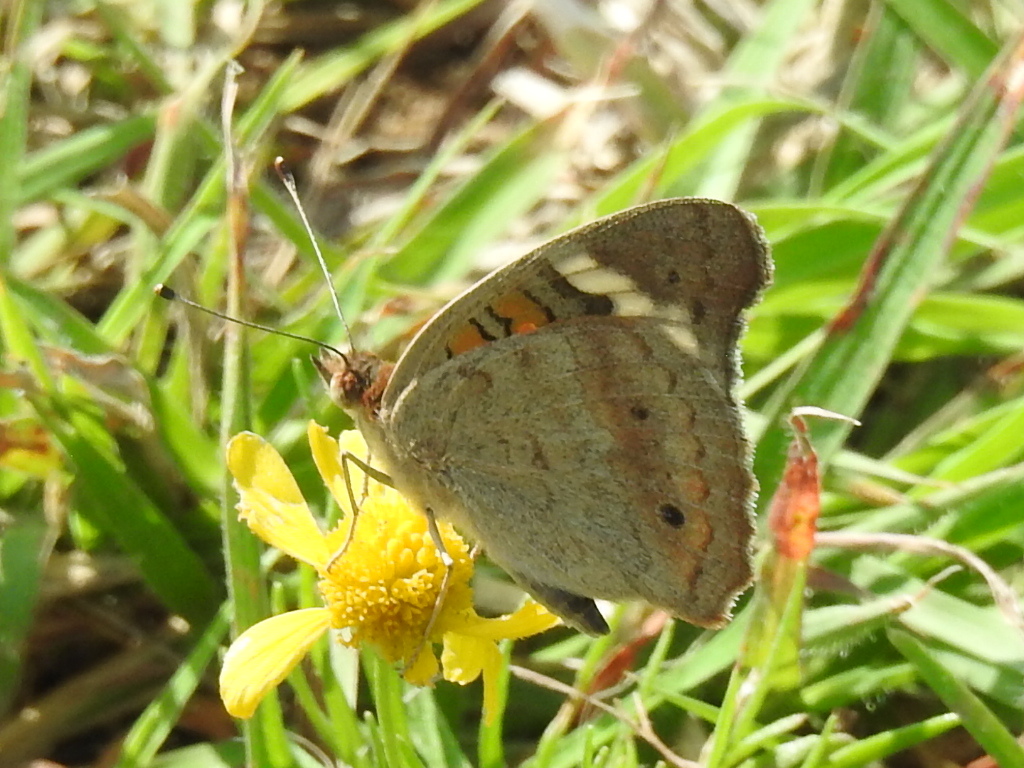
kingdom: Animalia
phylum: Arthropoda
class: Insecta
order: Lepidoptera
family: Nymphalidae
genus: Junonia
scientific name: Junonia coenia
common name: Common buckeye
